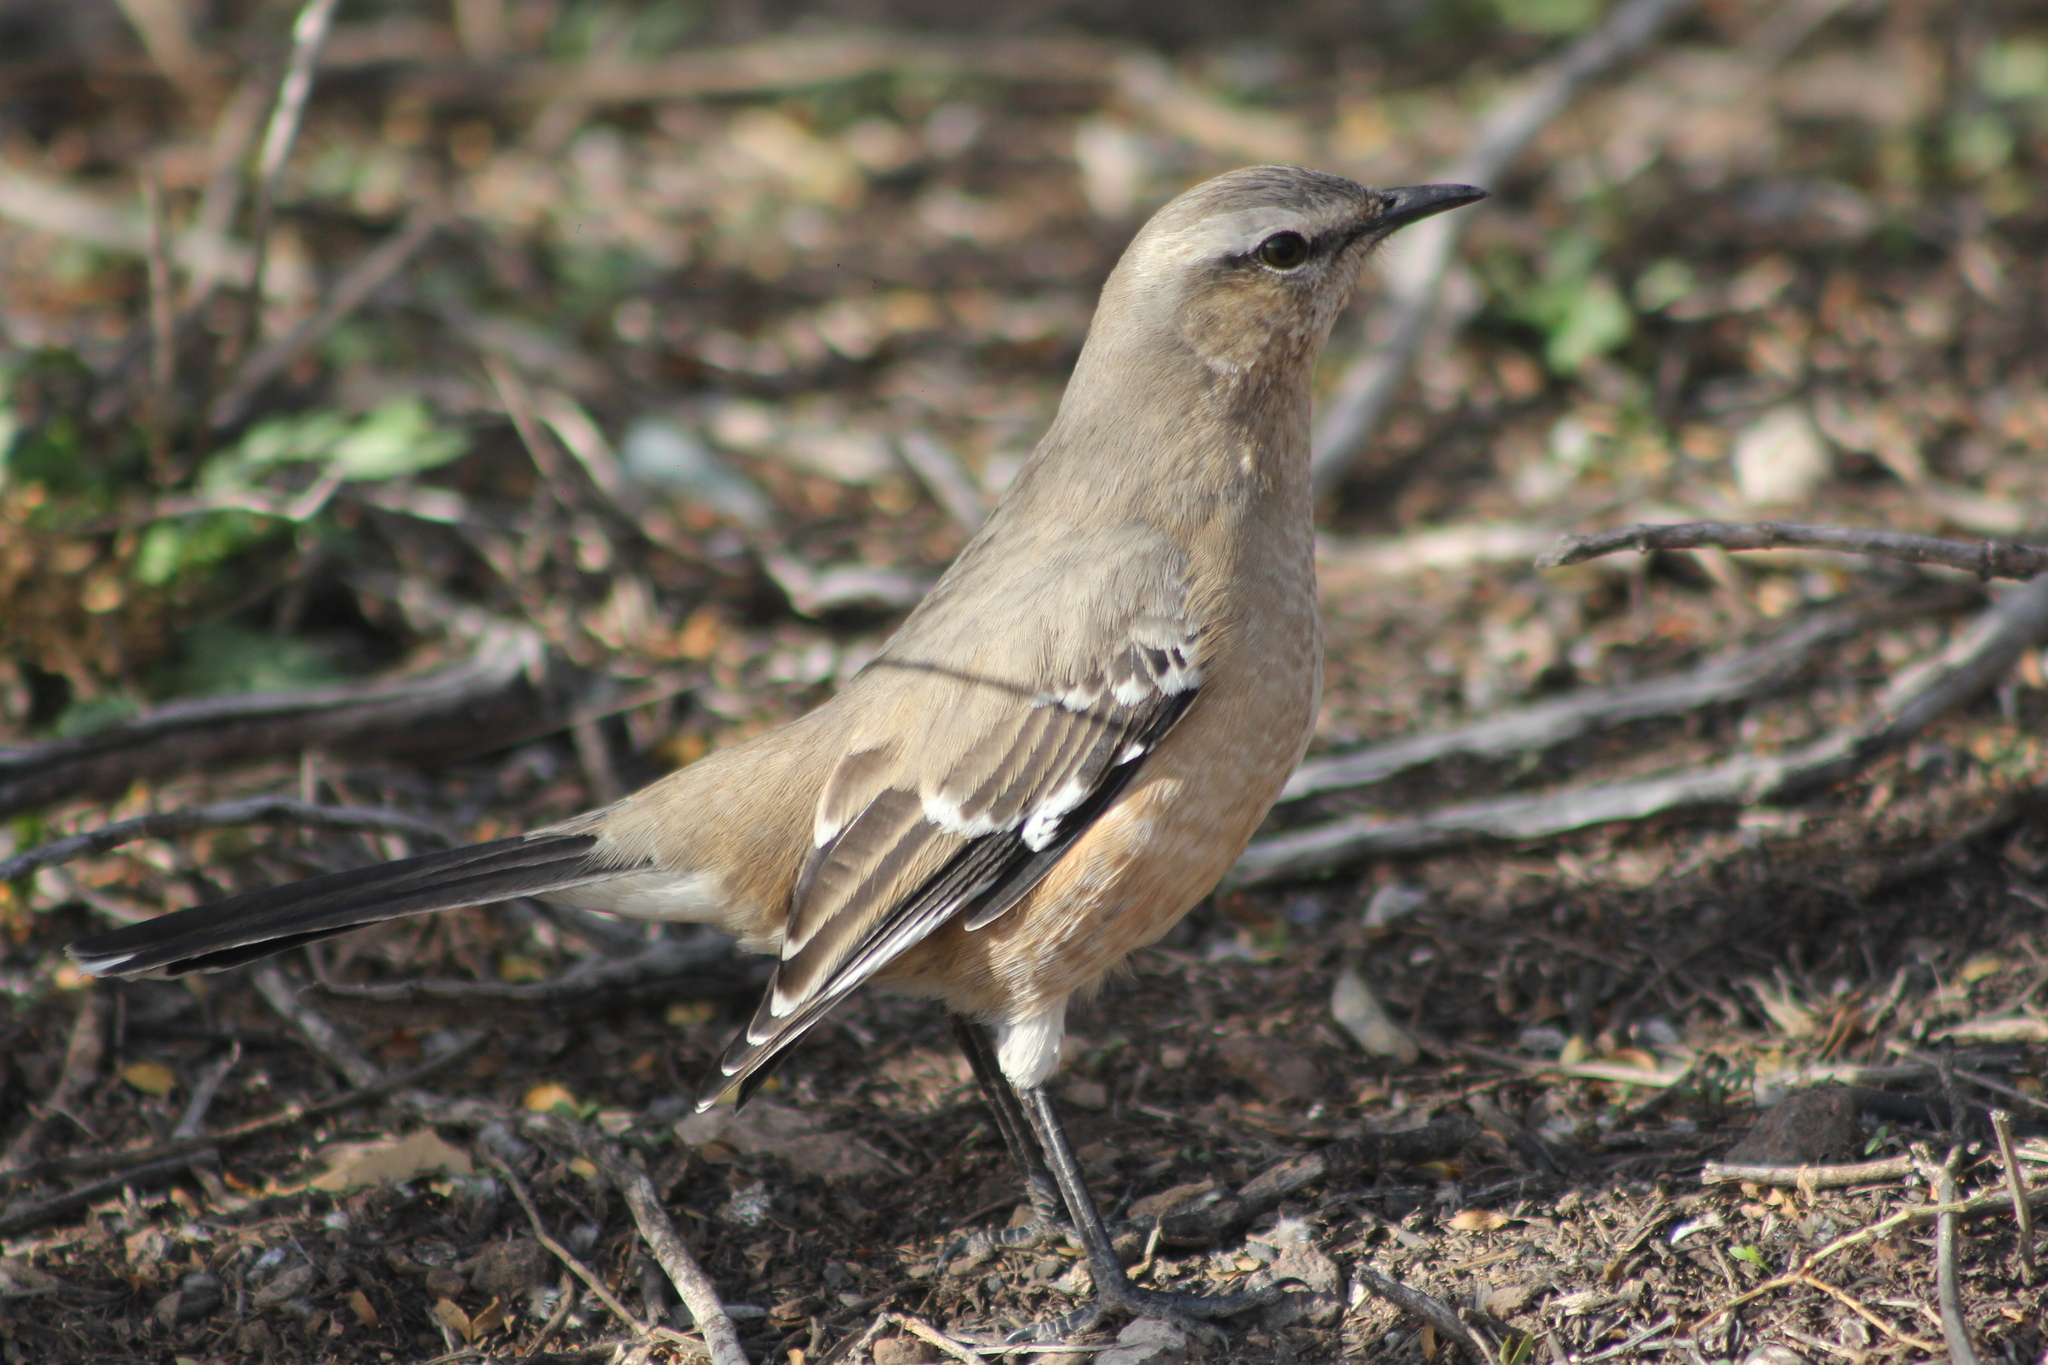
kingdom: Animalia
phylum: Chordata
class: Aves
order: Passeriformes
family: Mimidae
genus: Mimus
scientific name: Mimus patagonicus
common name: Patagonian mockingbird
